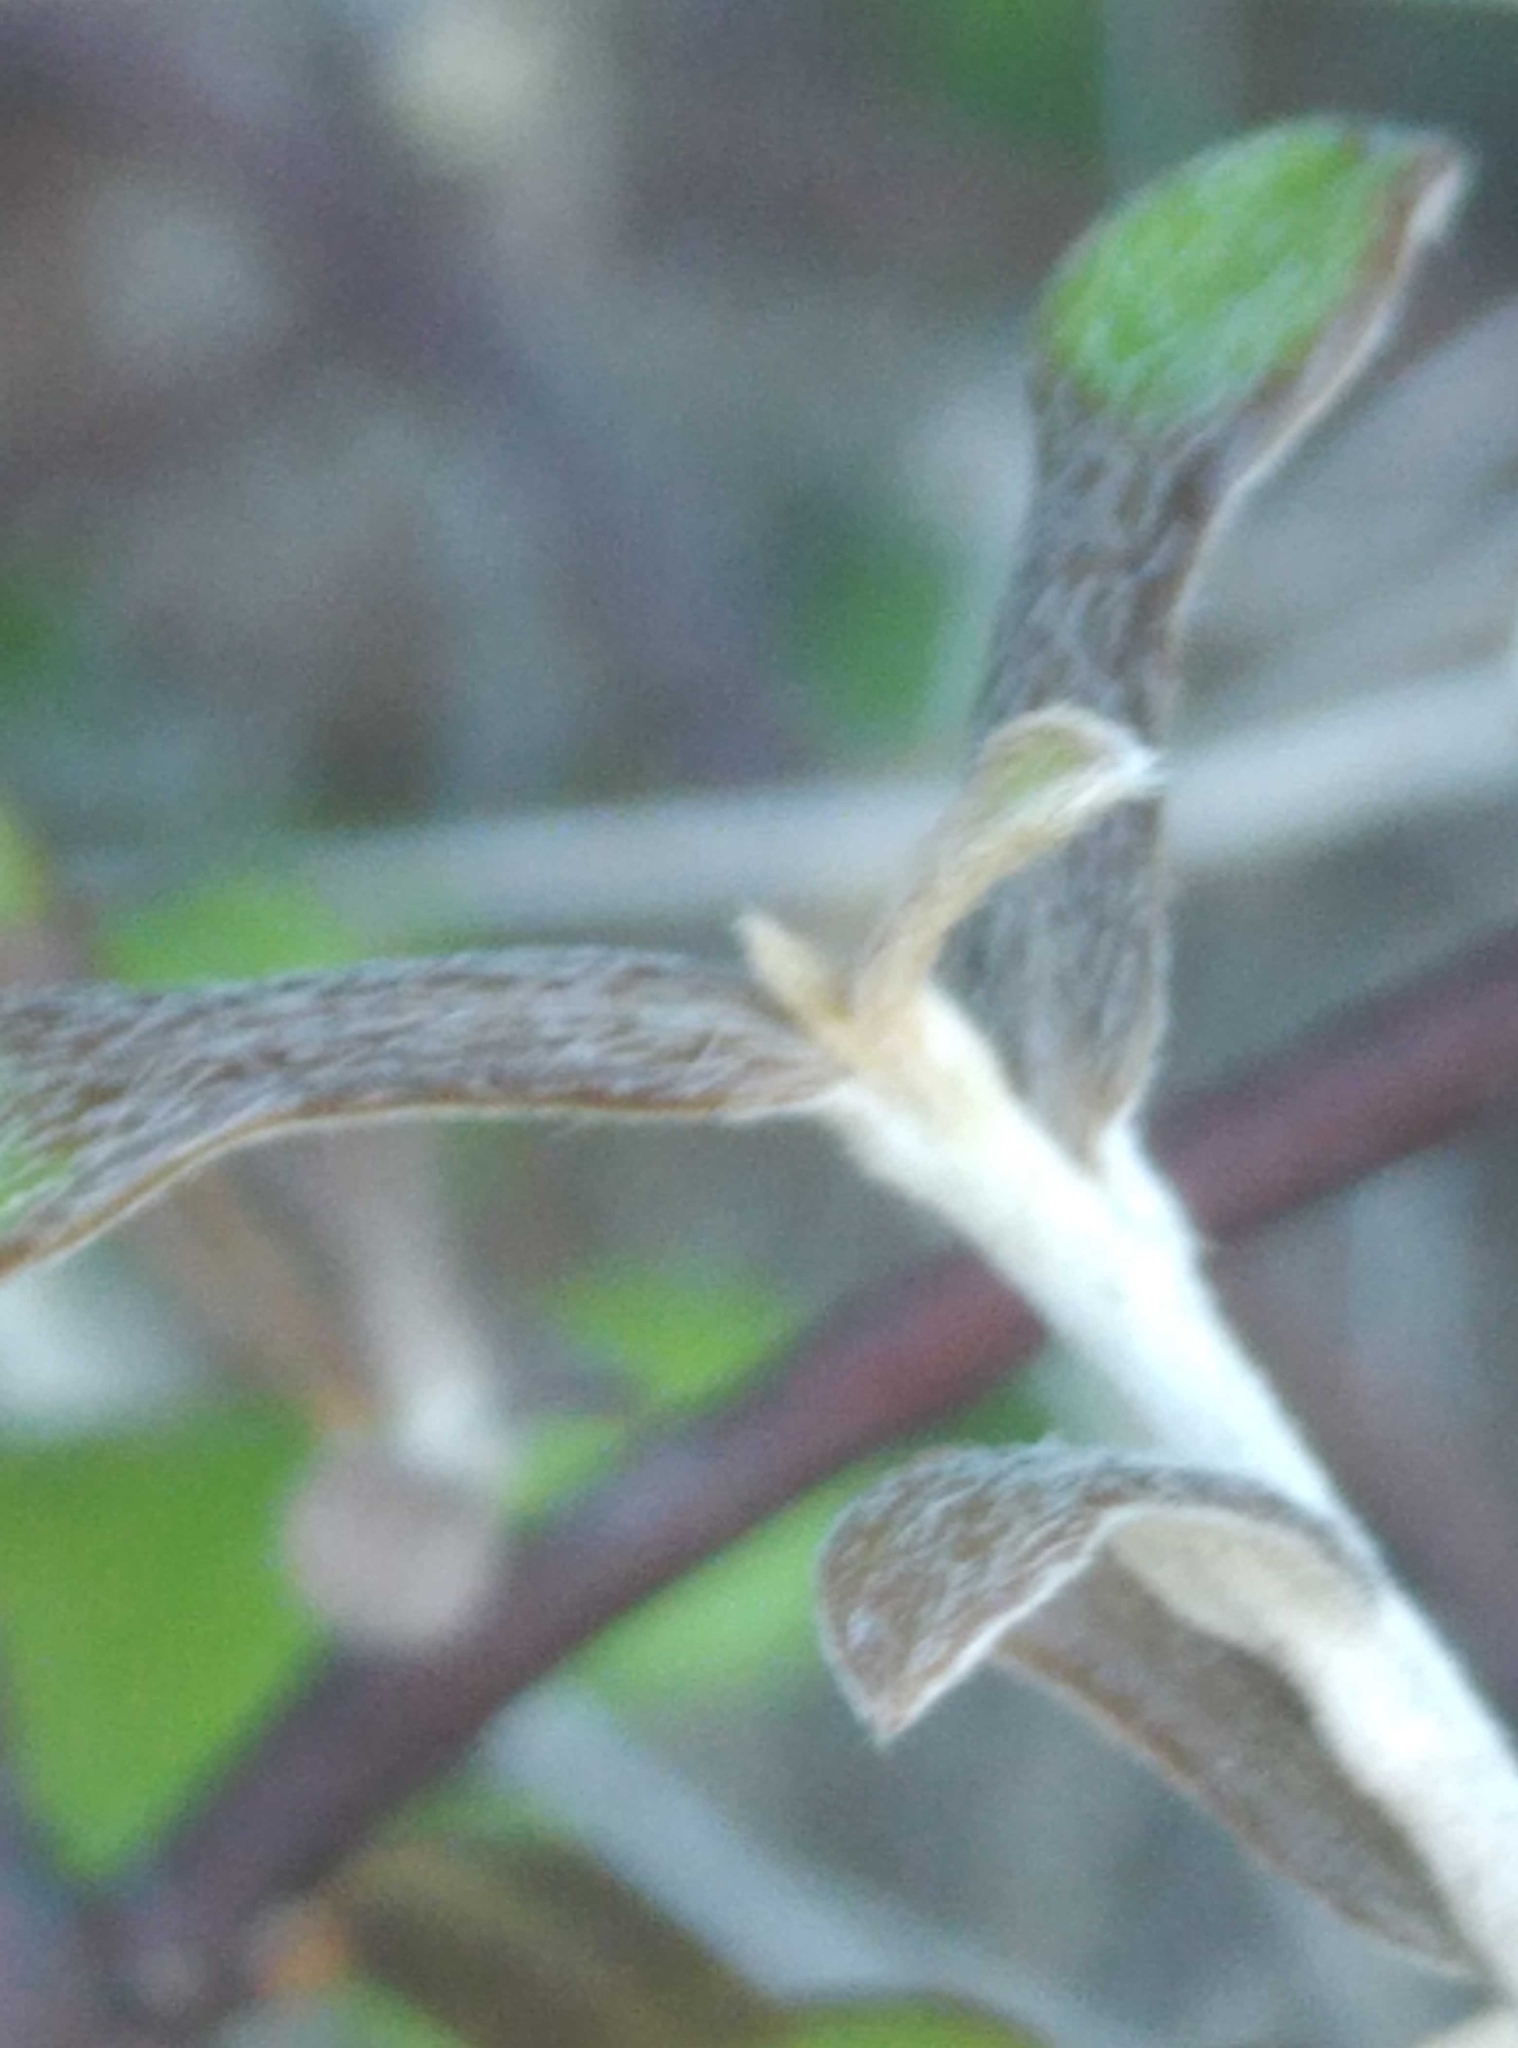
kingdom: Plantae
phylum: Tracheophyta
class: Magnoliopsida
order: Asterales
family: Argophyllaceae
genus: Corokia
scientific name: Corokia cotoneaster
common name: Wire nettingbush
